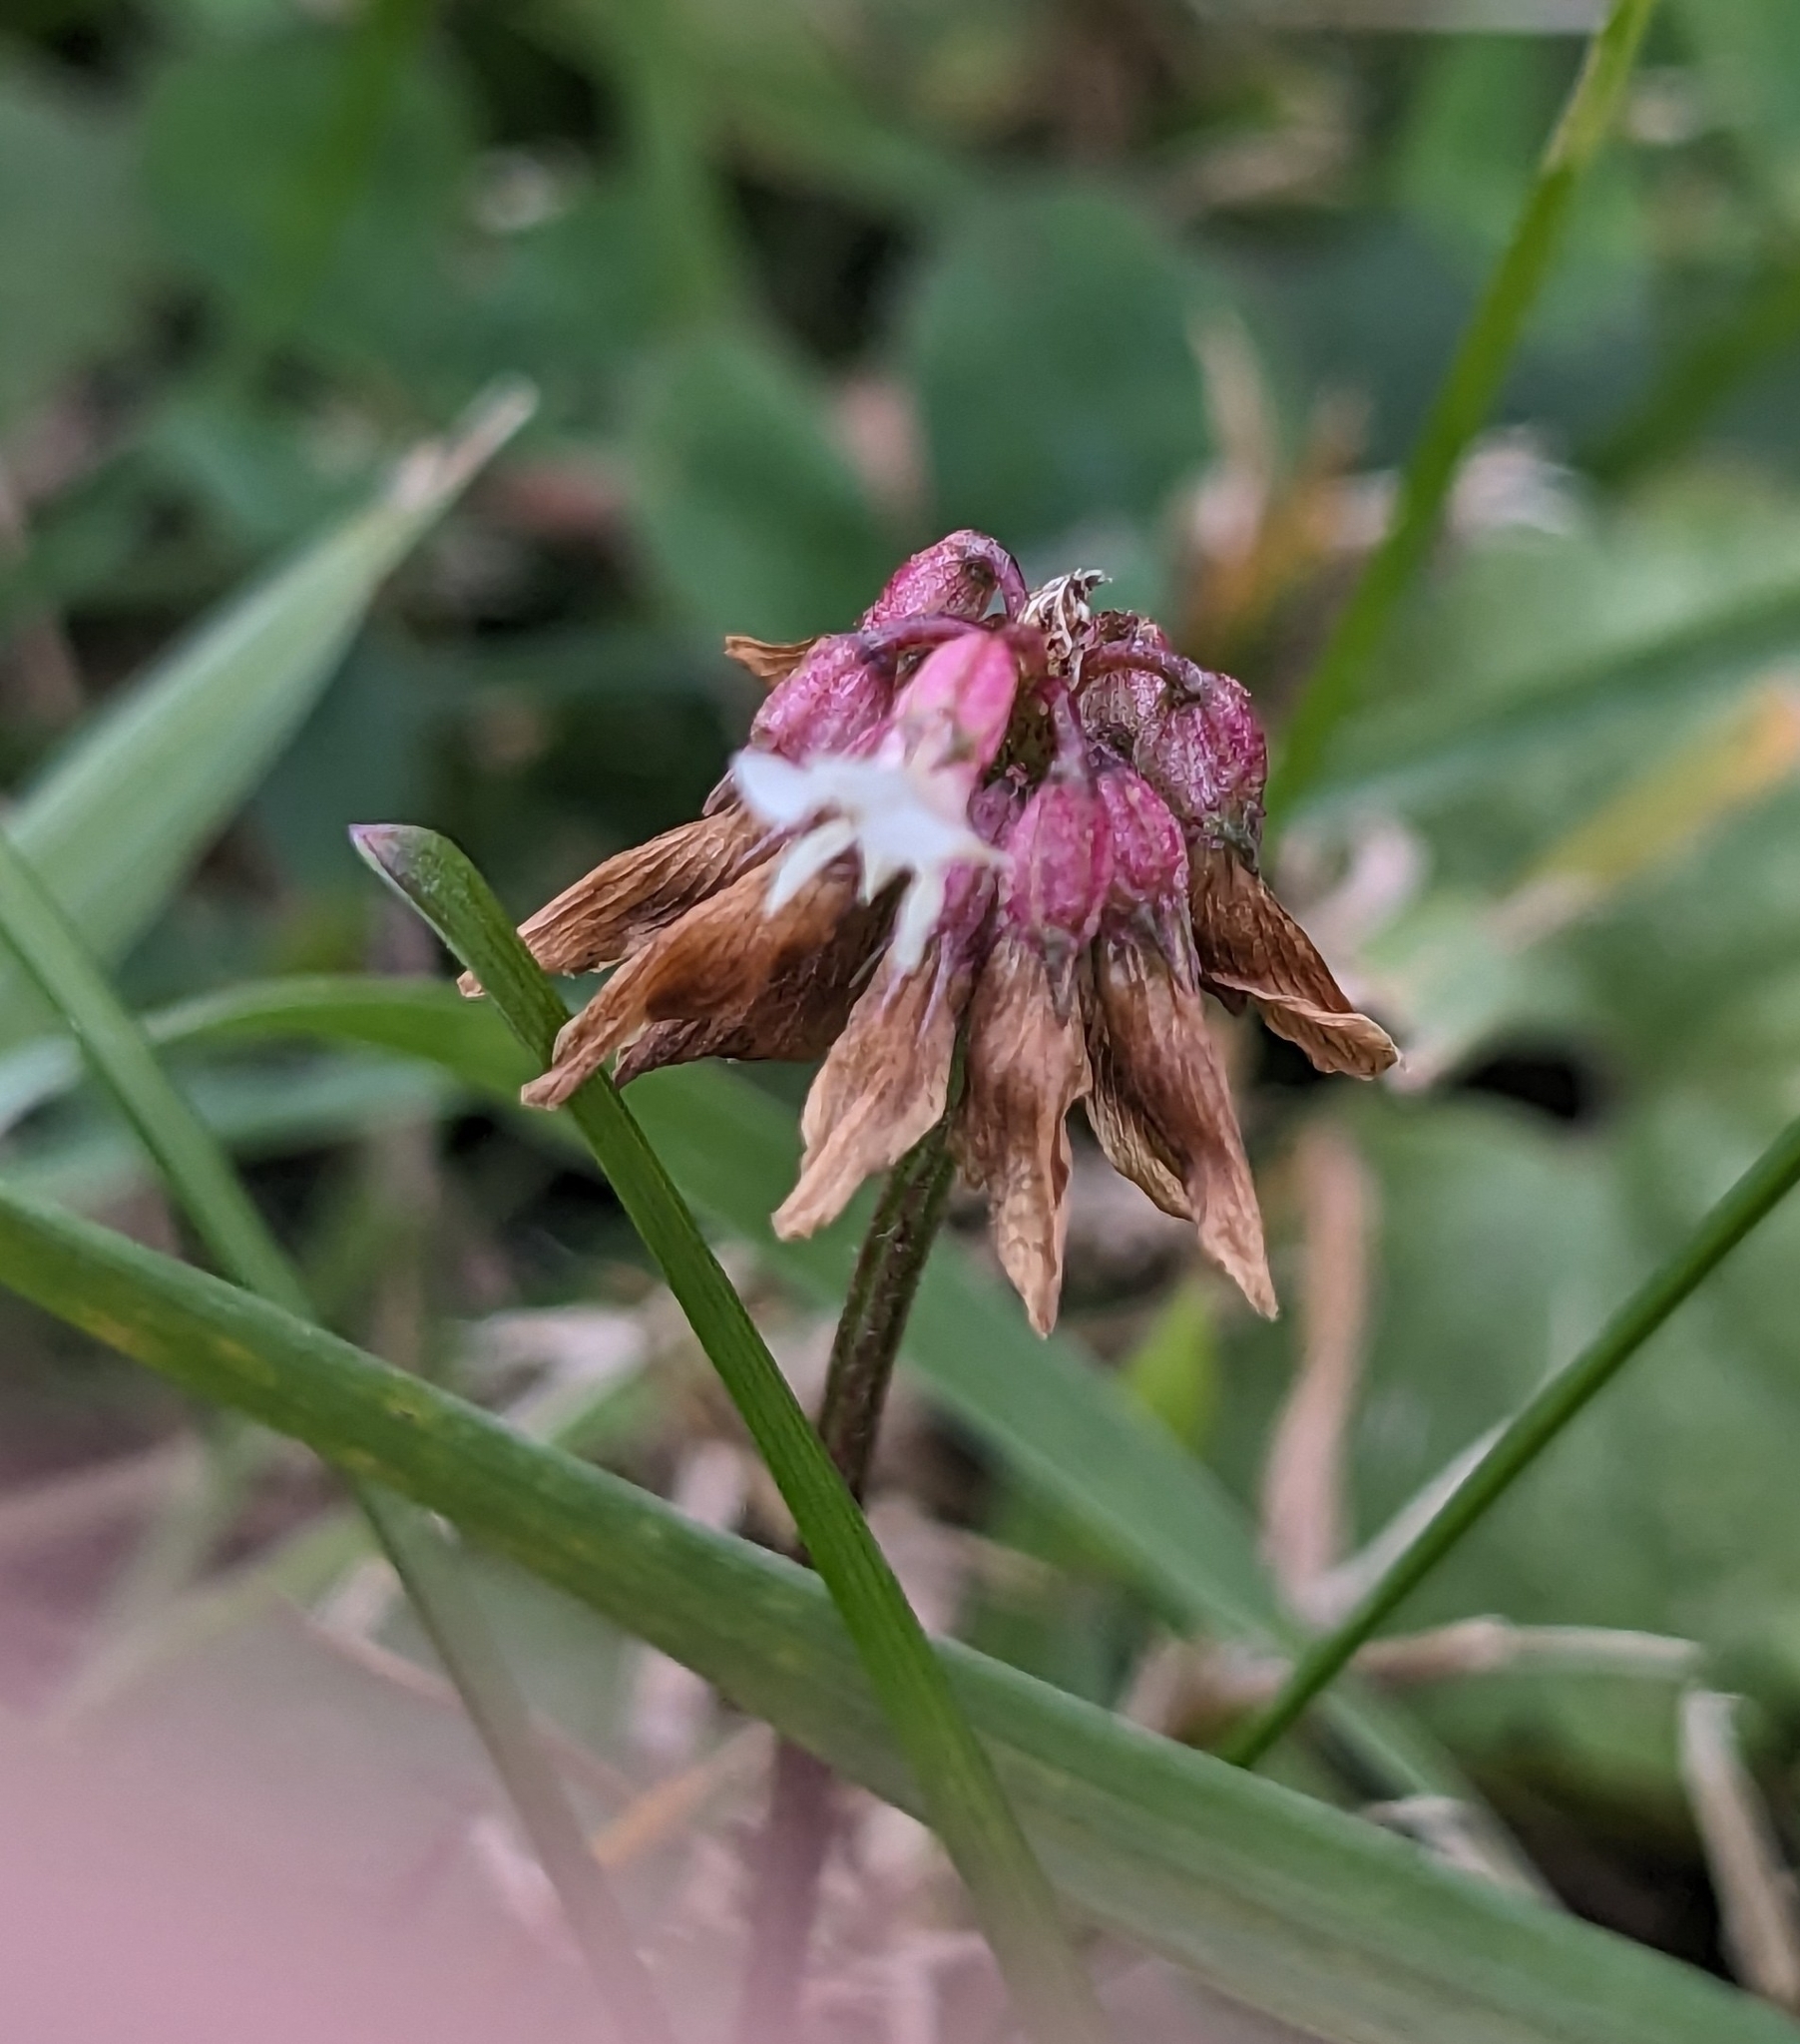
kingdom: Plantae
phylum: Tracheophyta
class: Magnoliopsida
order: Fabales
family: Fabaceae
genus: Trifolium
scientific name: Trifolium repens
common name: White clover
